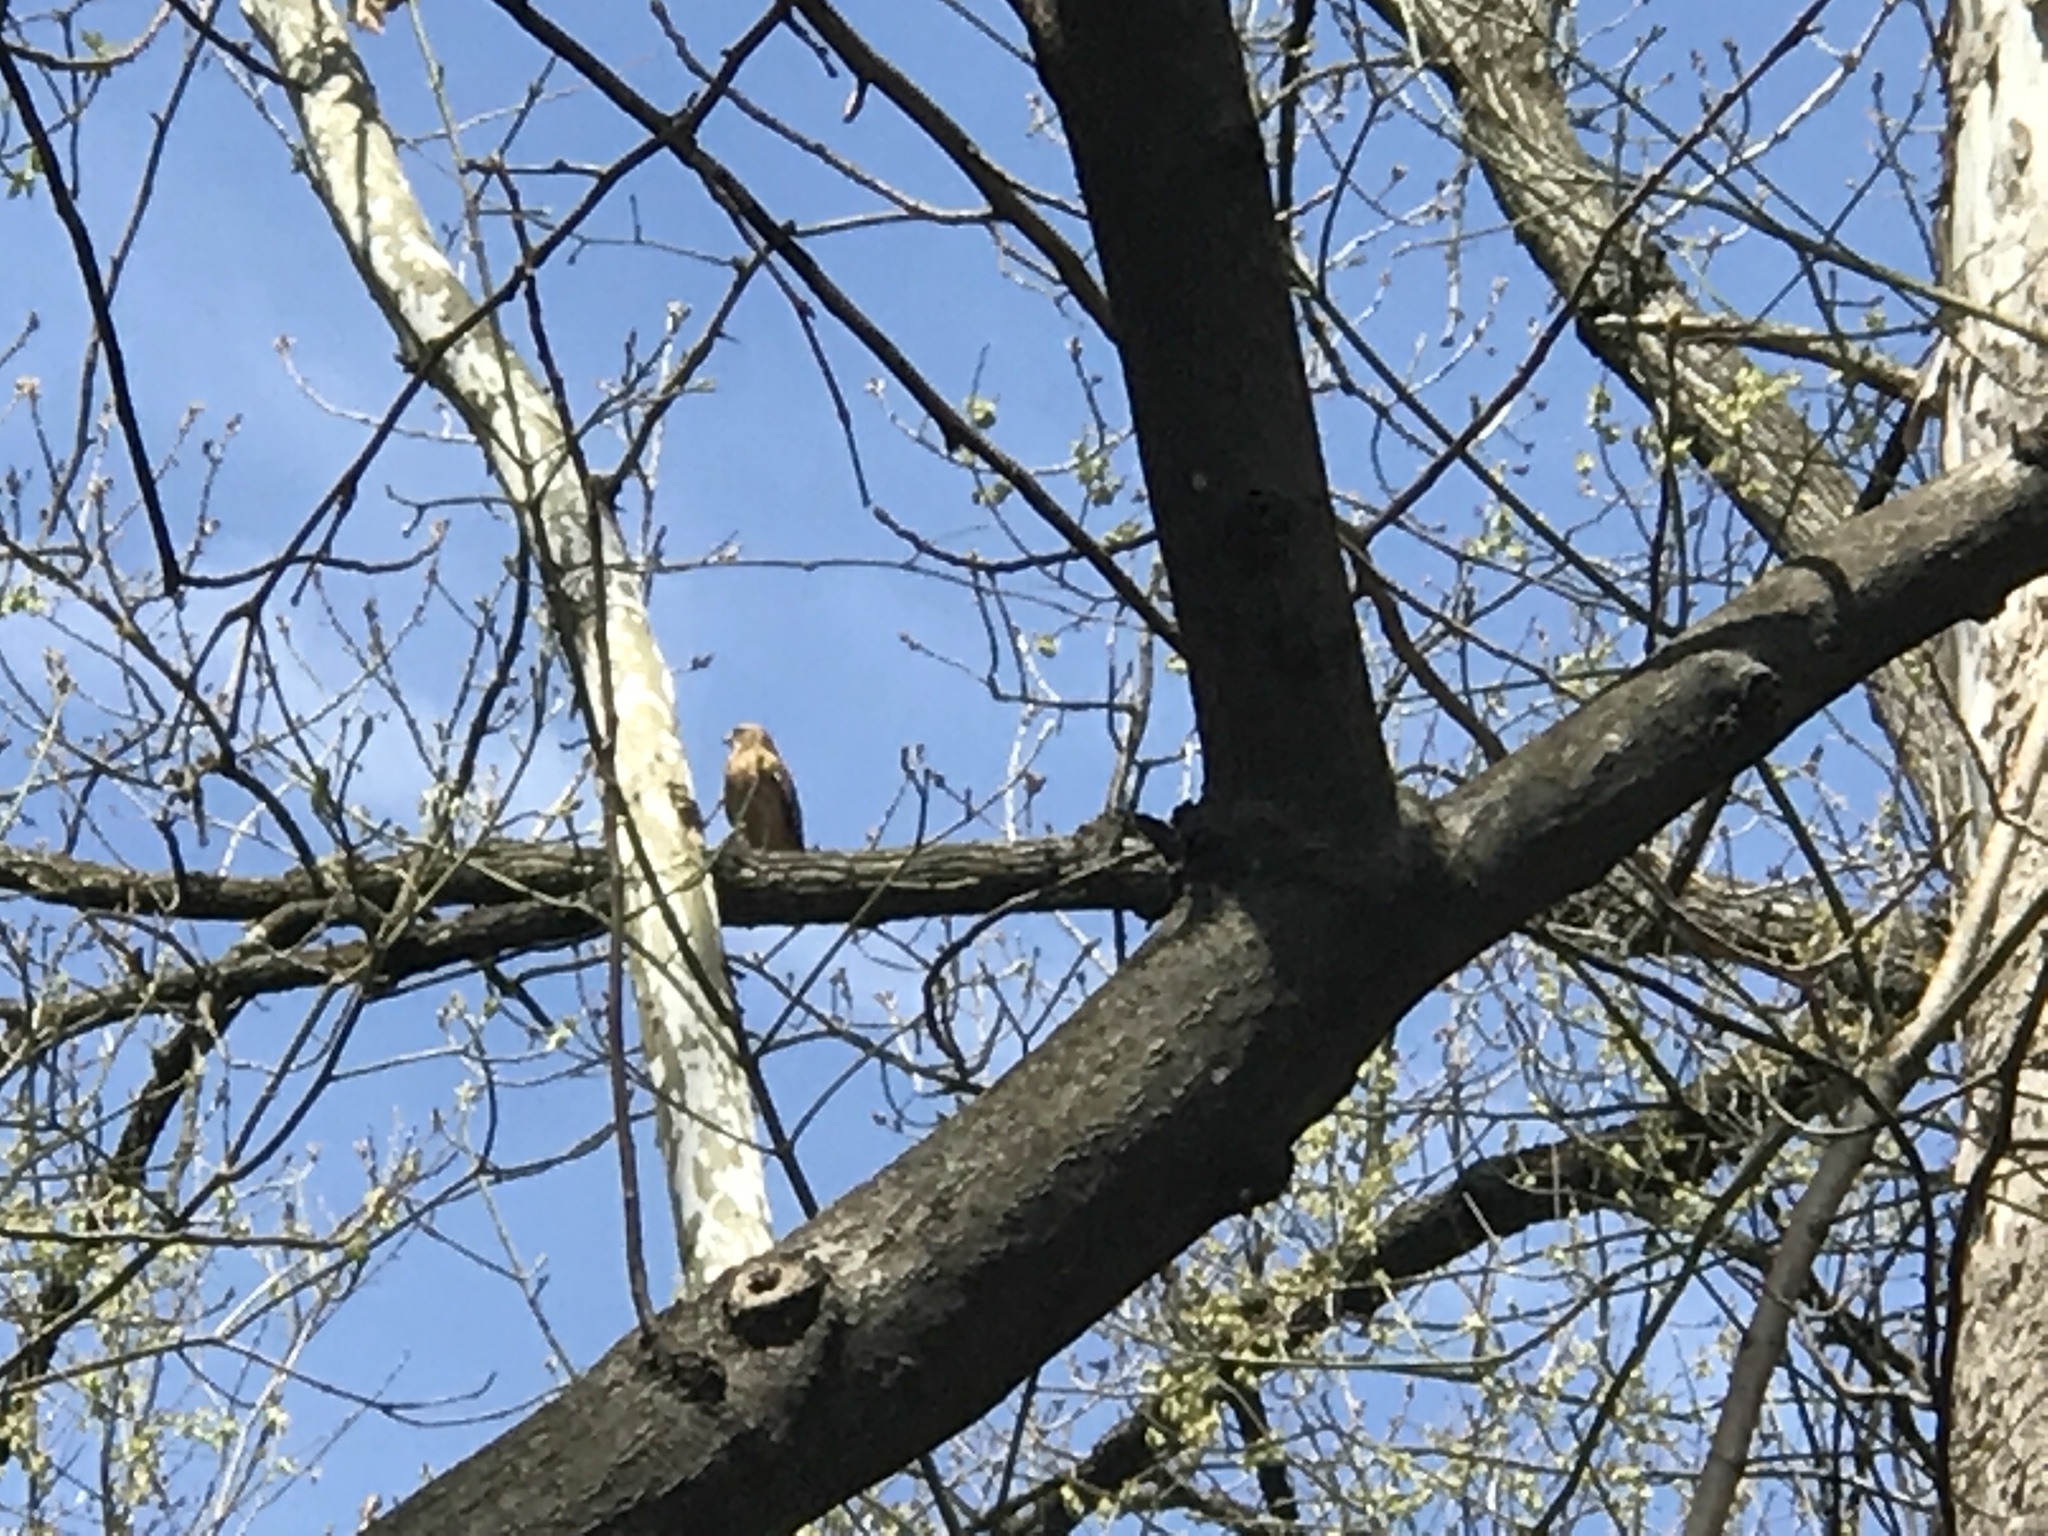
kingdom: Animalia
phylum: Chordata
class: Aves
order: Accipitriformes
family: Accipitridae
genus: Buteo
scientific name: Buteo lineatus
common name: Red-shouldered hawk
